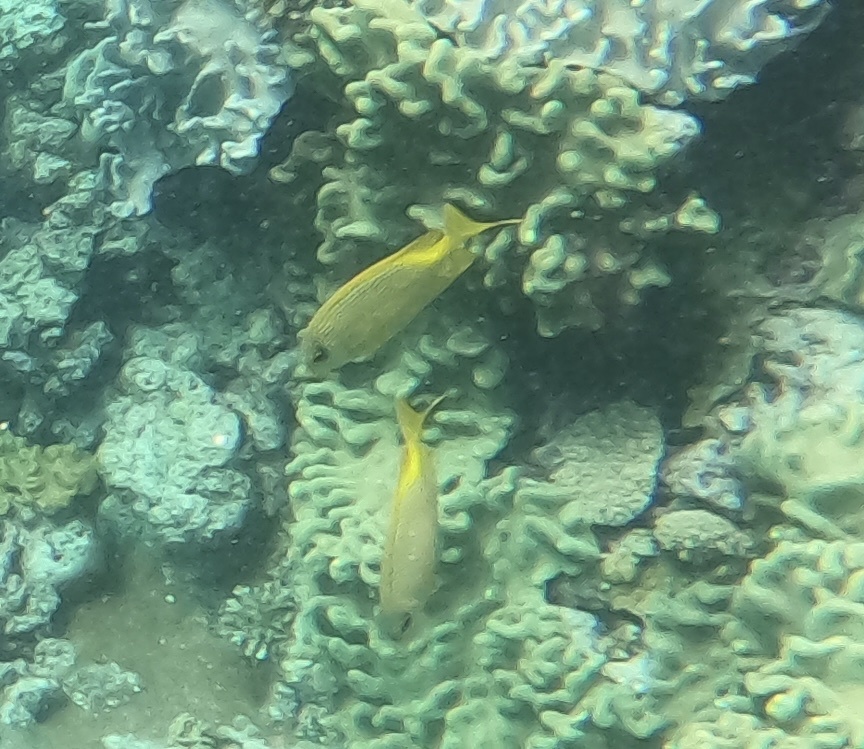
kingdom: Animalia
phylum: Chordata
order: Perciformes
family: Siganidae
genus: Siganus
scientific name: Siganus corallinus
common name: Coral rabbitfish
